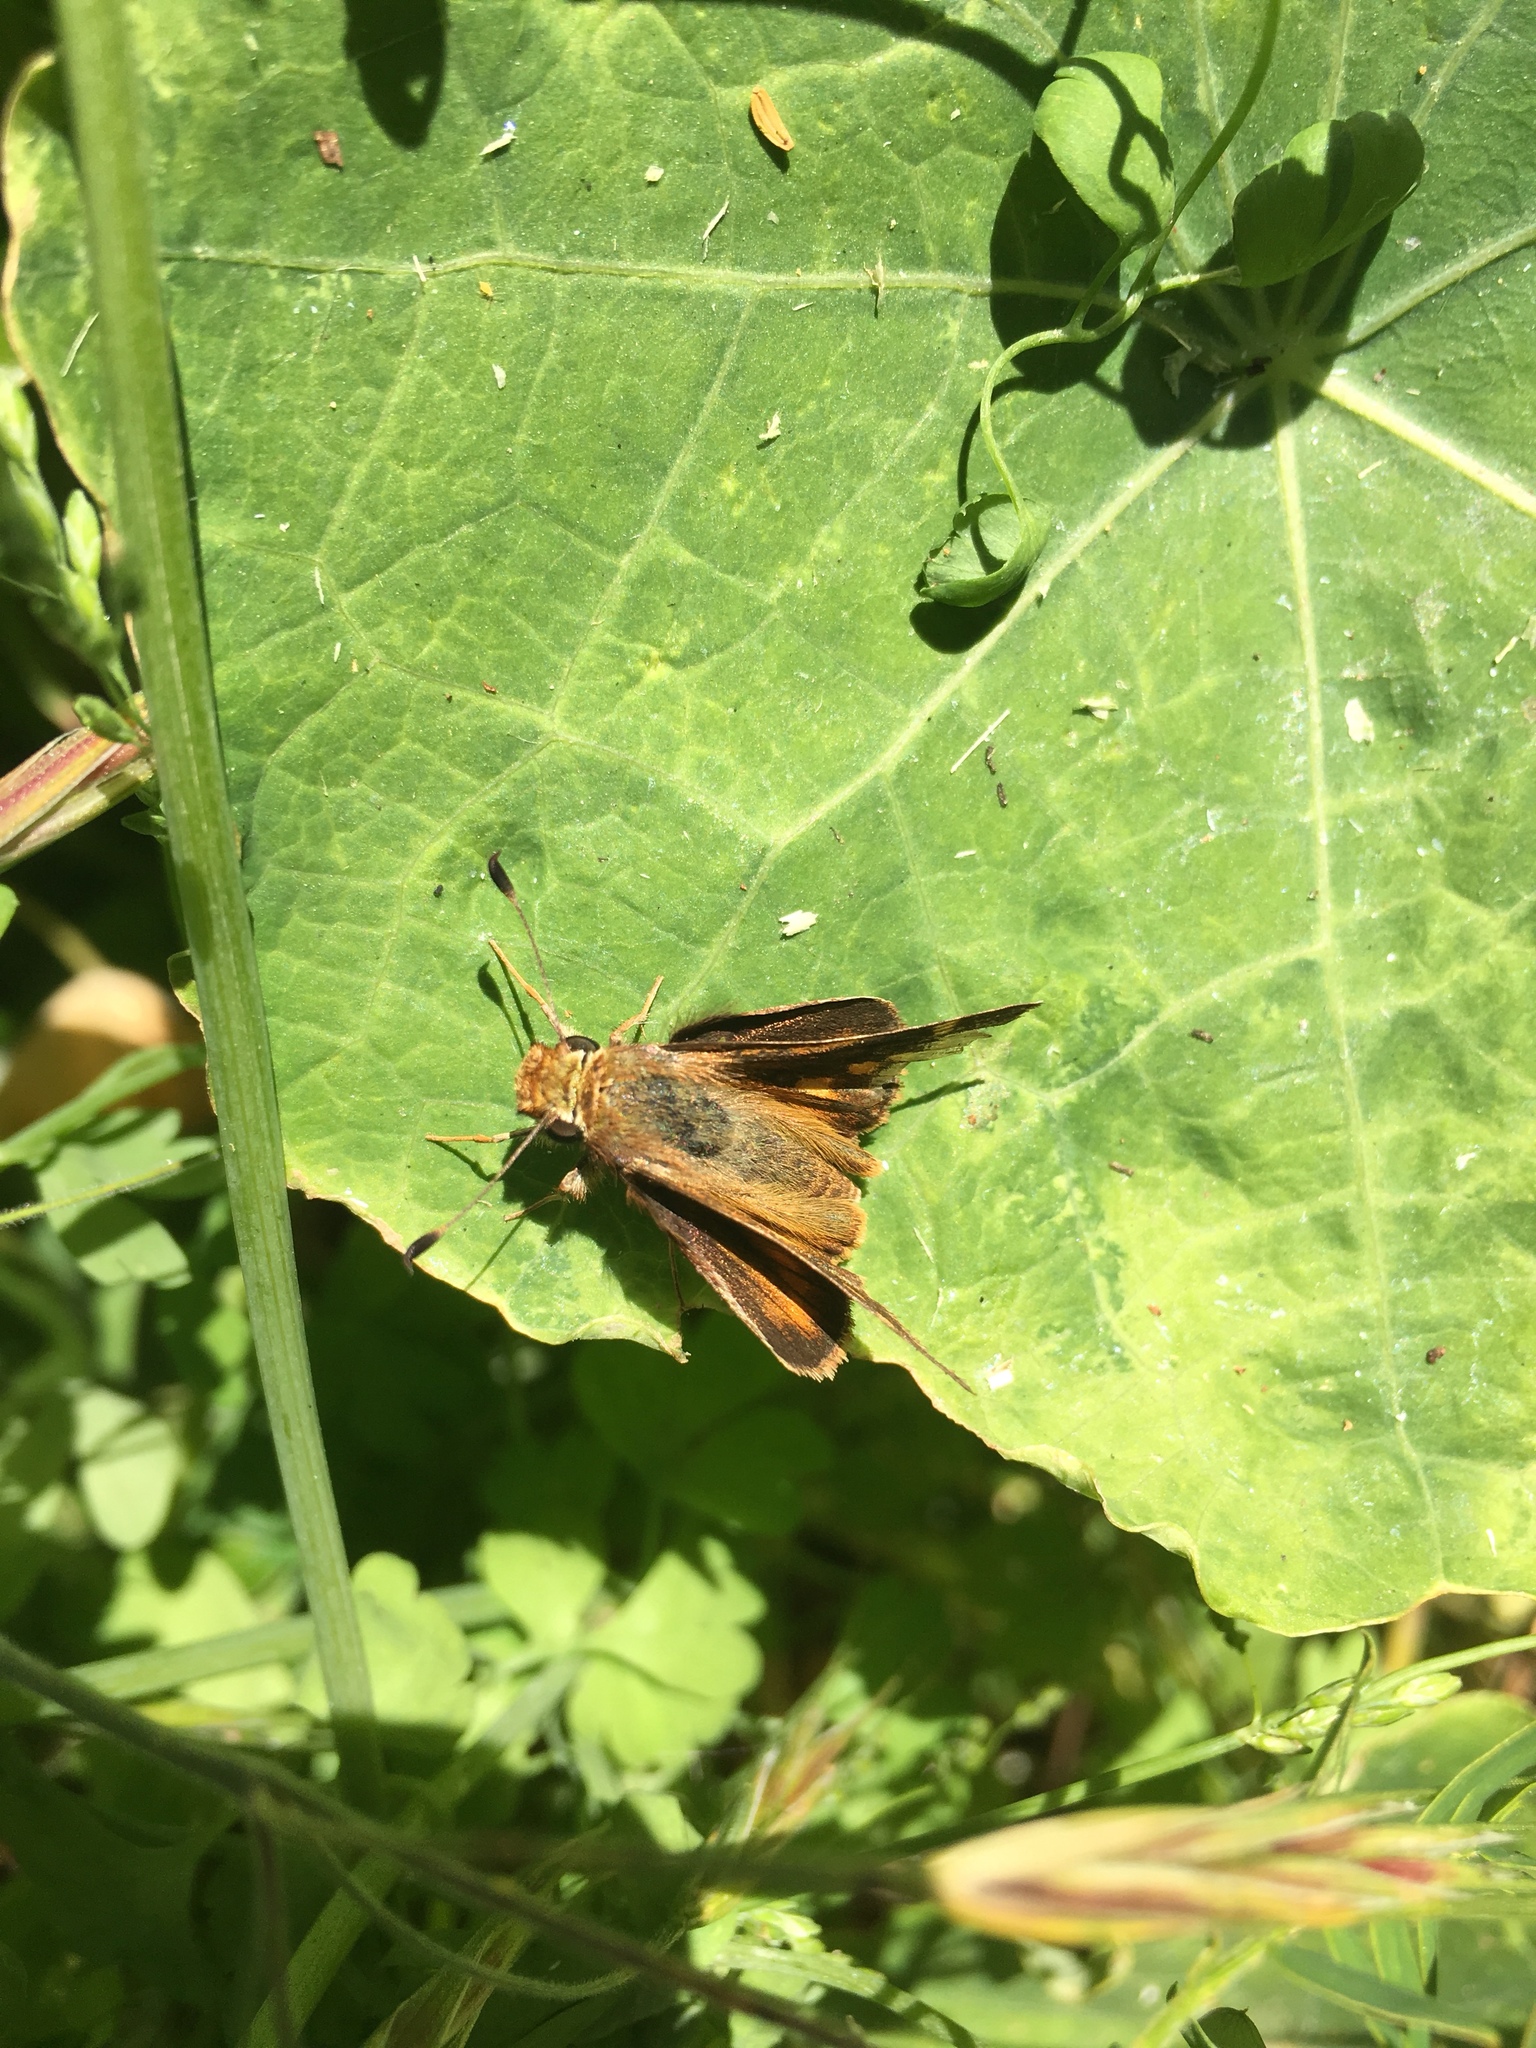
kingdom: Animalia
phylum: Arthropoda
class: Insecta
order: Lepidoptera
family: Hesperiidae
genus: Lon
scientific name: Lon melane
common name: Umber skipper
